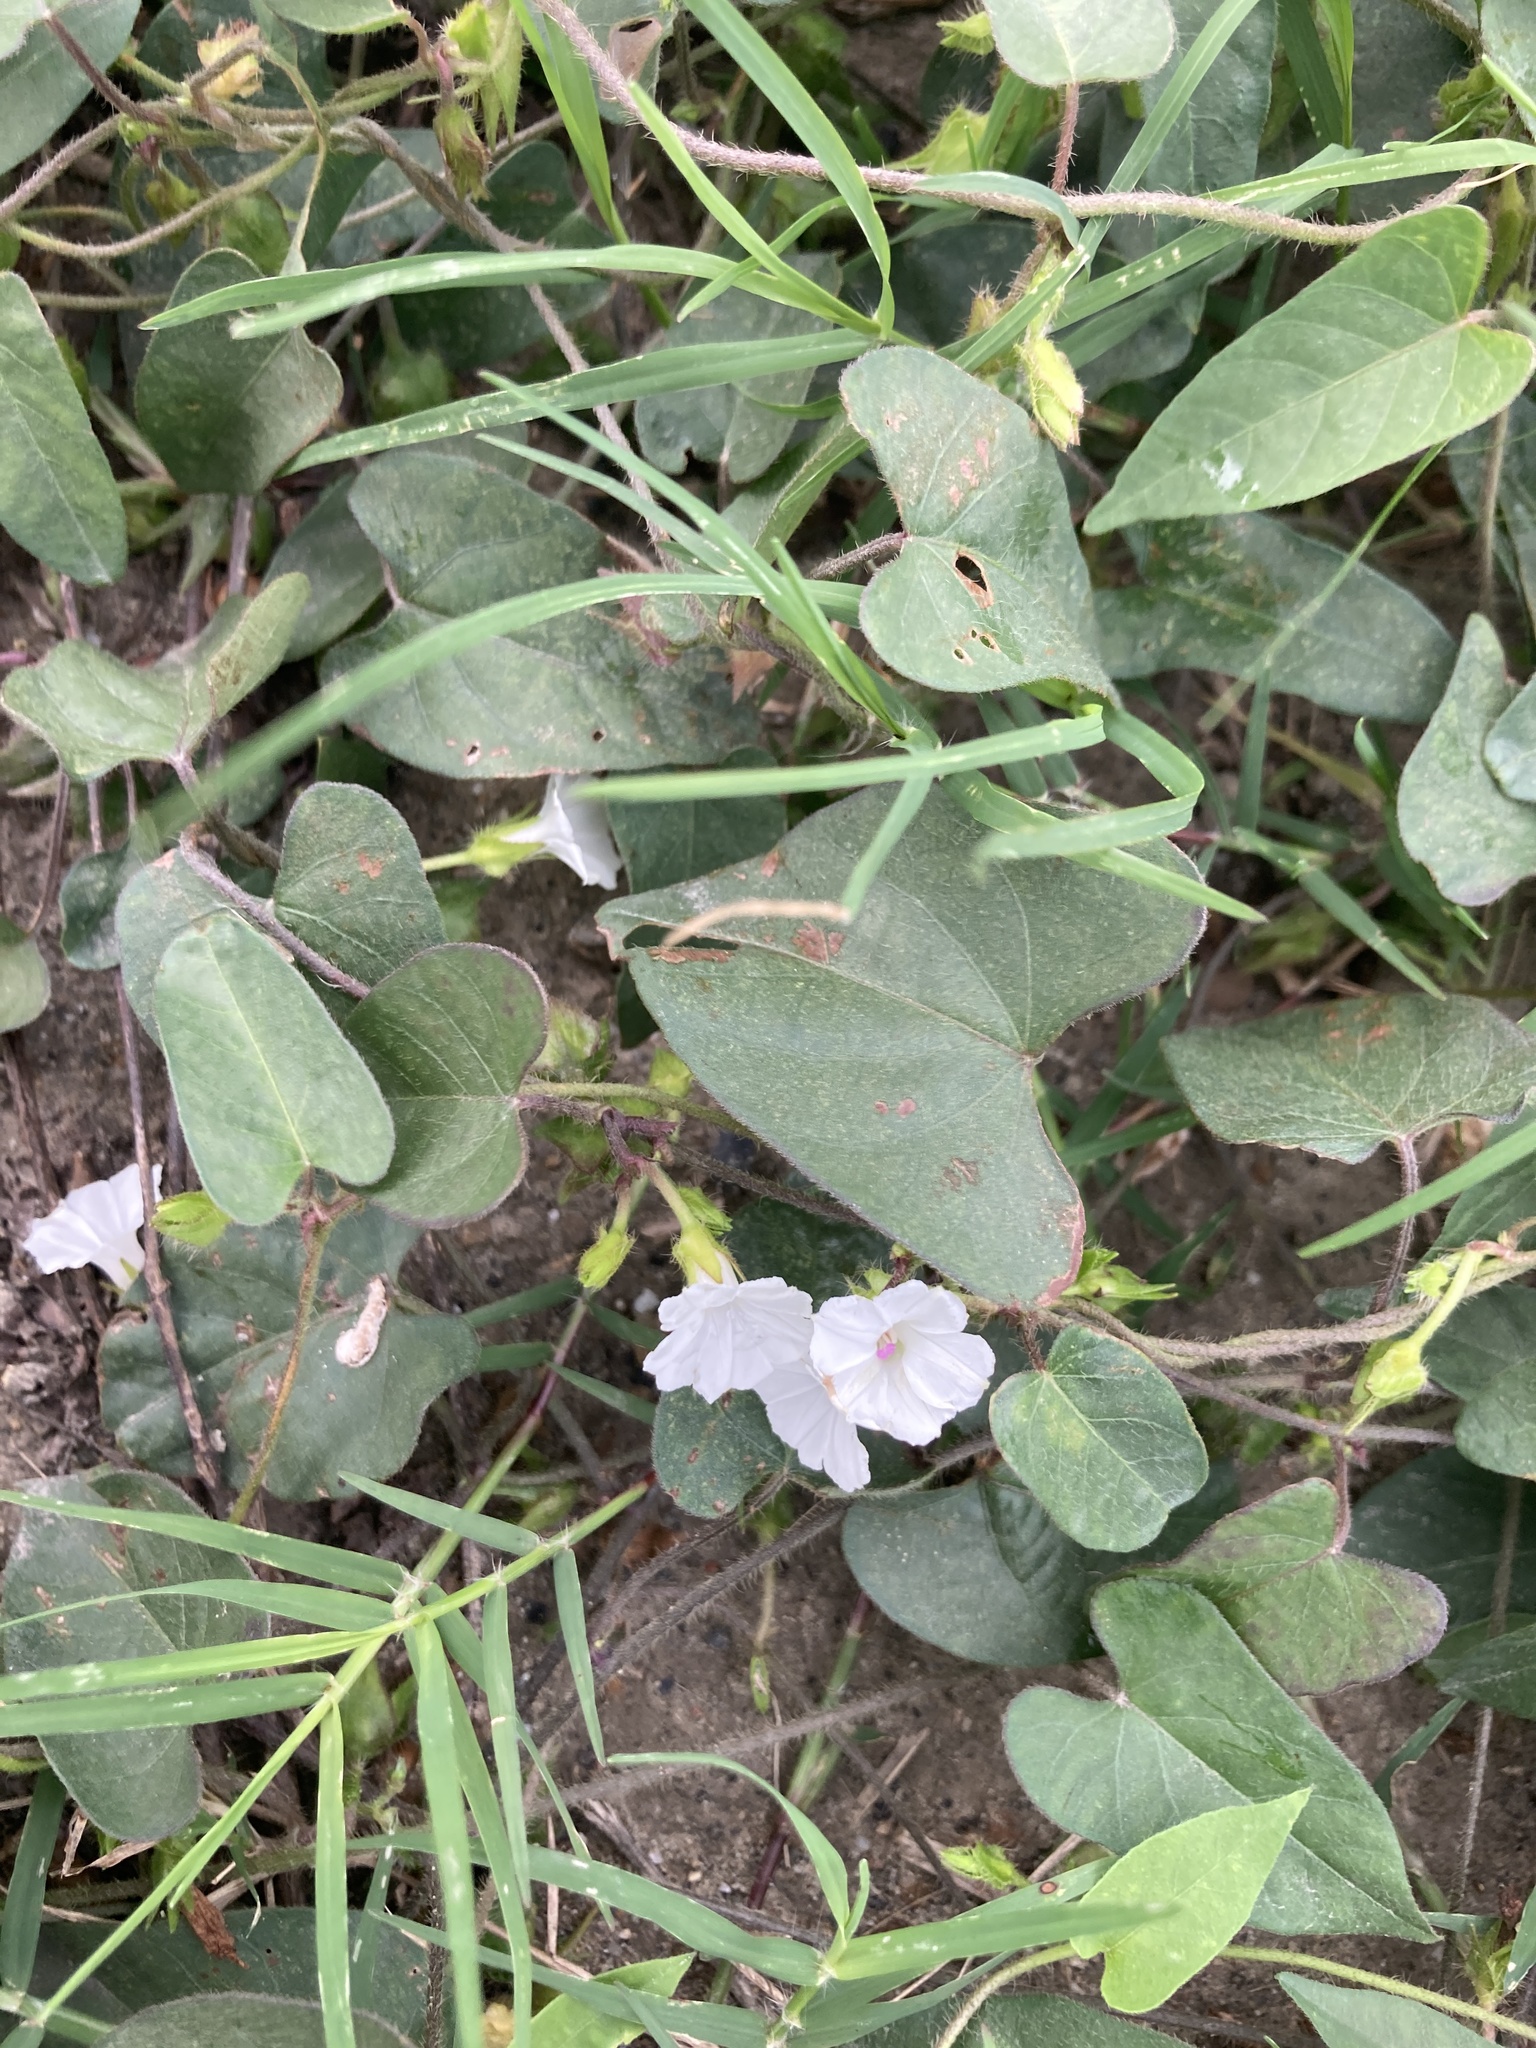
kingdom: Plantae
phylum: Tracheophyta
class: Magnoliopsida
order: Solanales
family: Convolvulaceae
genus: Ipomoea
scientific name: Ipomoea biflora
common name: Bellvine
